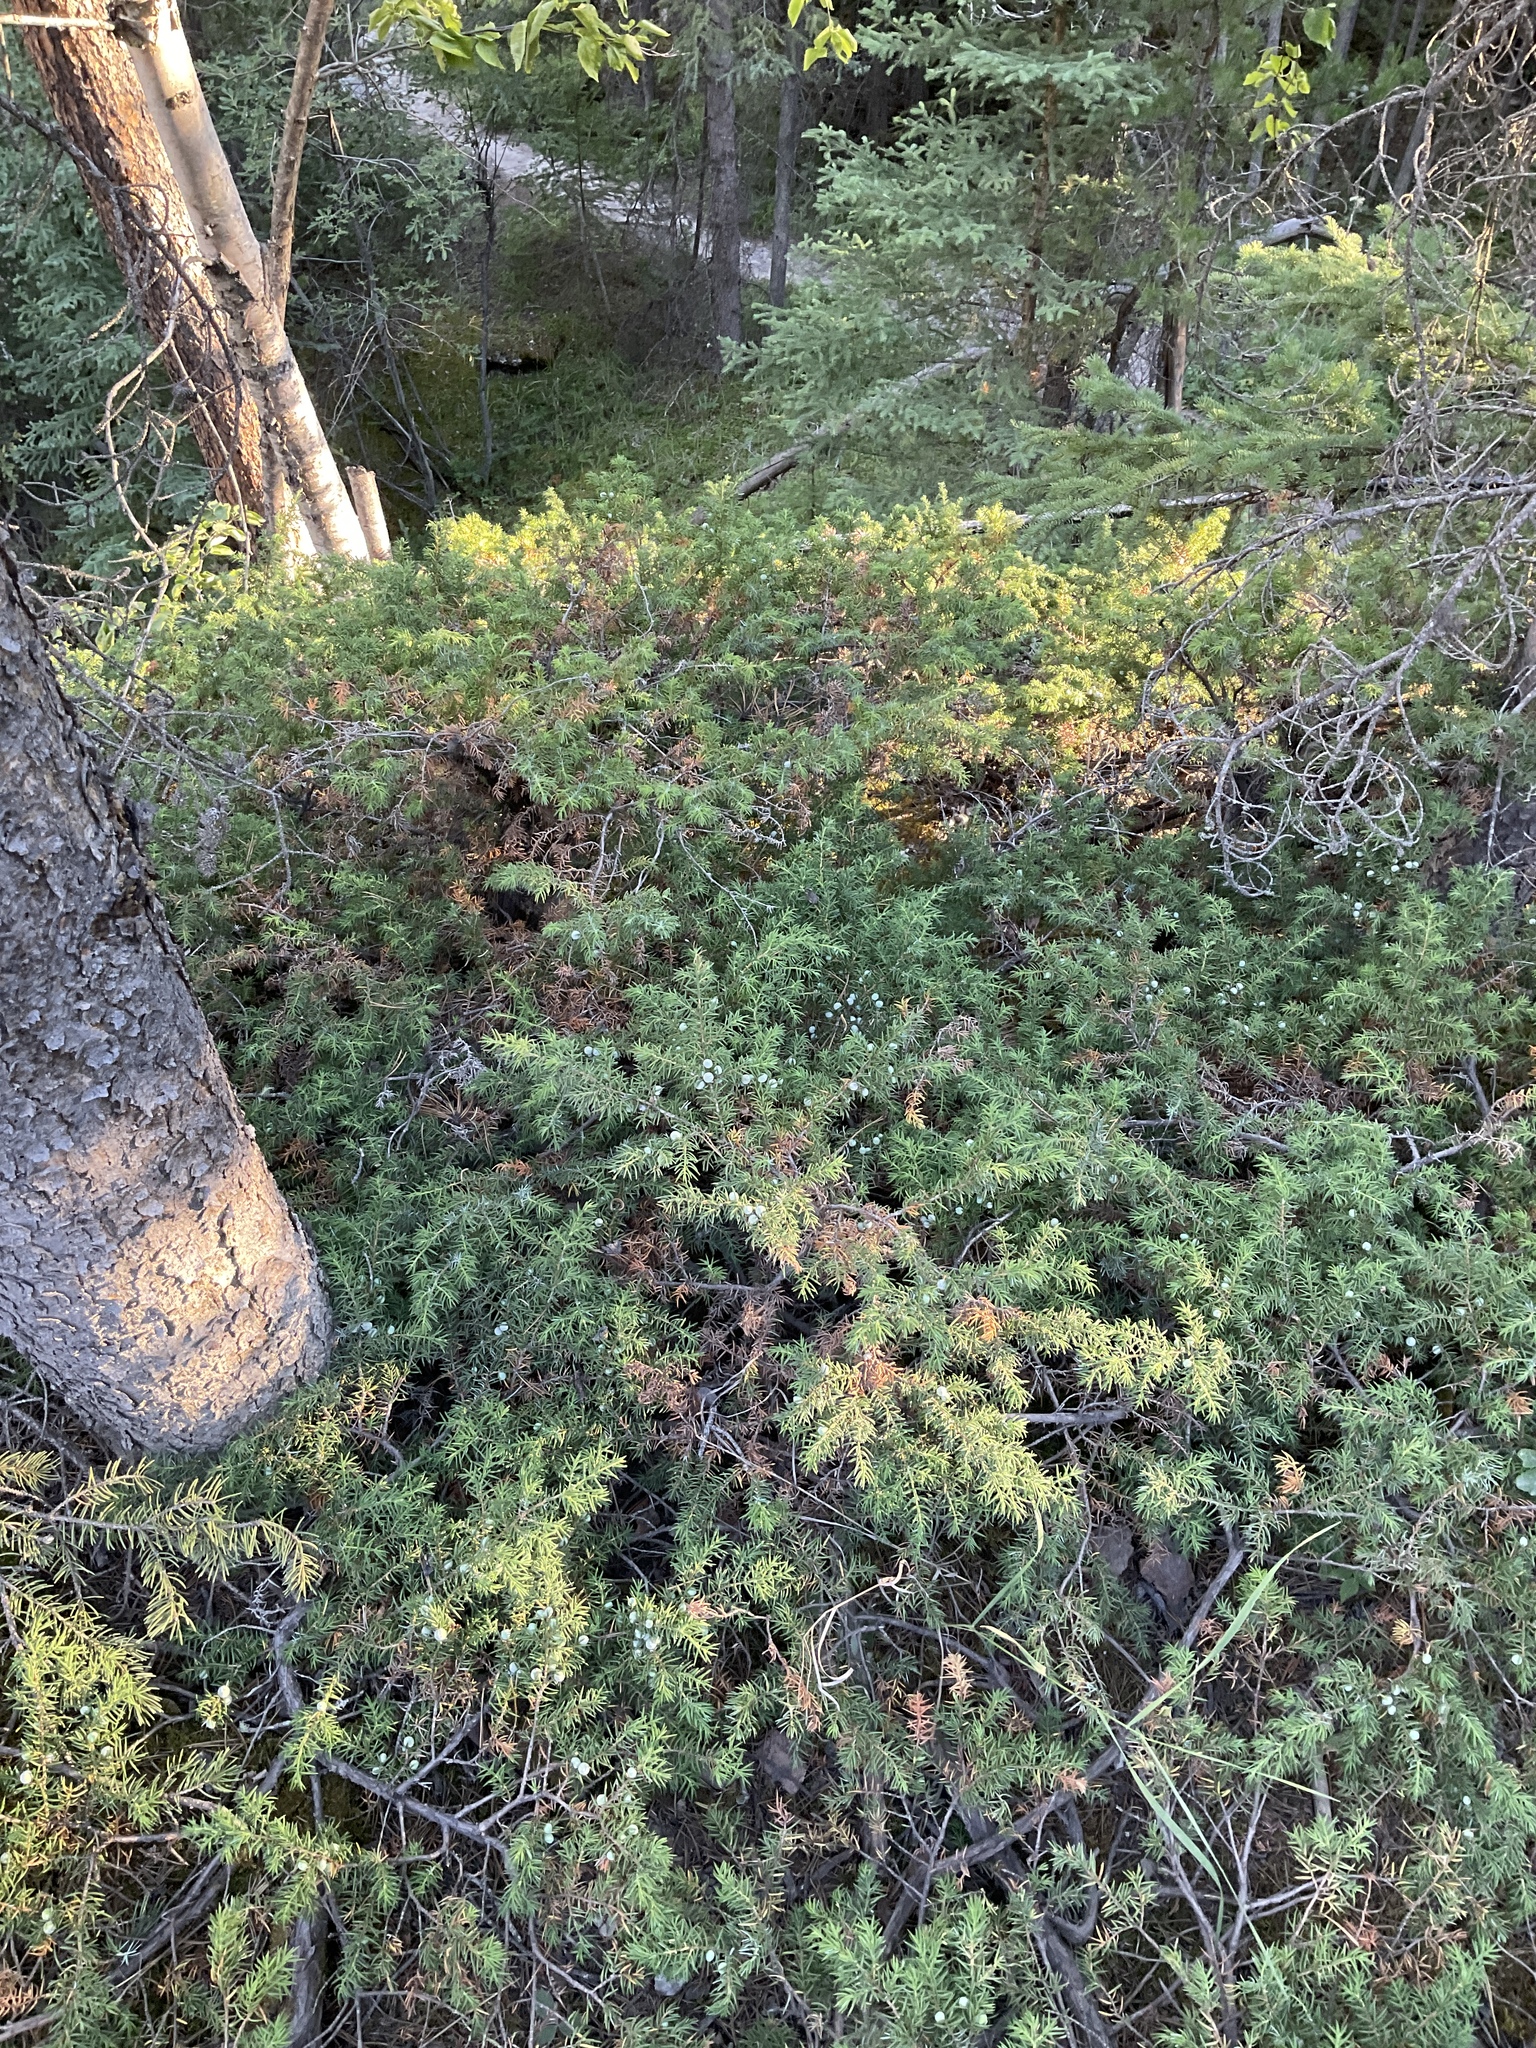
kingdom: Plantae
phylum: Tracheophyta
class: Pinopsida
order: Pinales
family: Cupressaceae
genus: Juniperus
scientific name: Juniperus communis
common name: Common juniper
